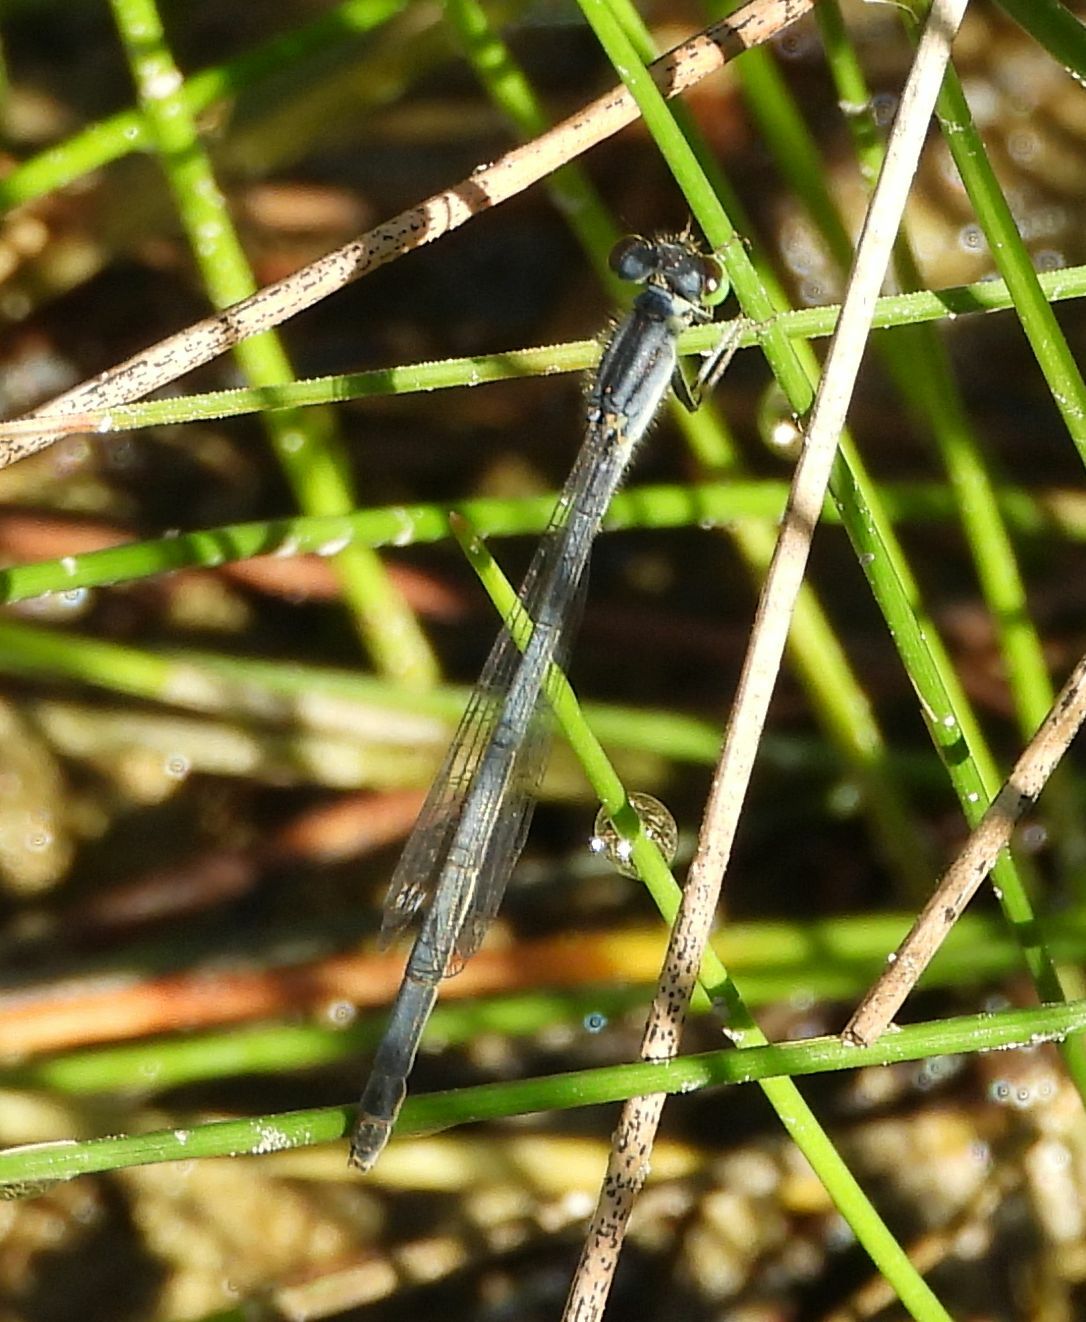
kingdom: Animalia
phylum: Arthropoda
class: Insecta
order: Odonata
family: Coenagrionidae
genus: Ischnura
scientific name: Ischnura verticalis
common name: Eastern forktail
